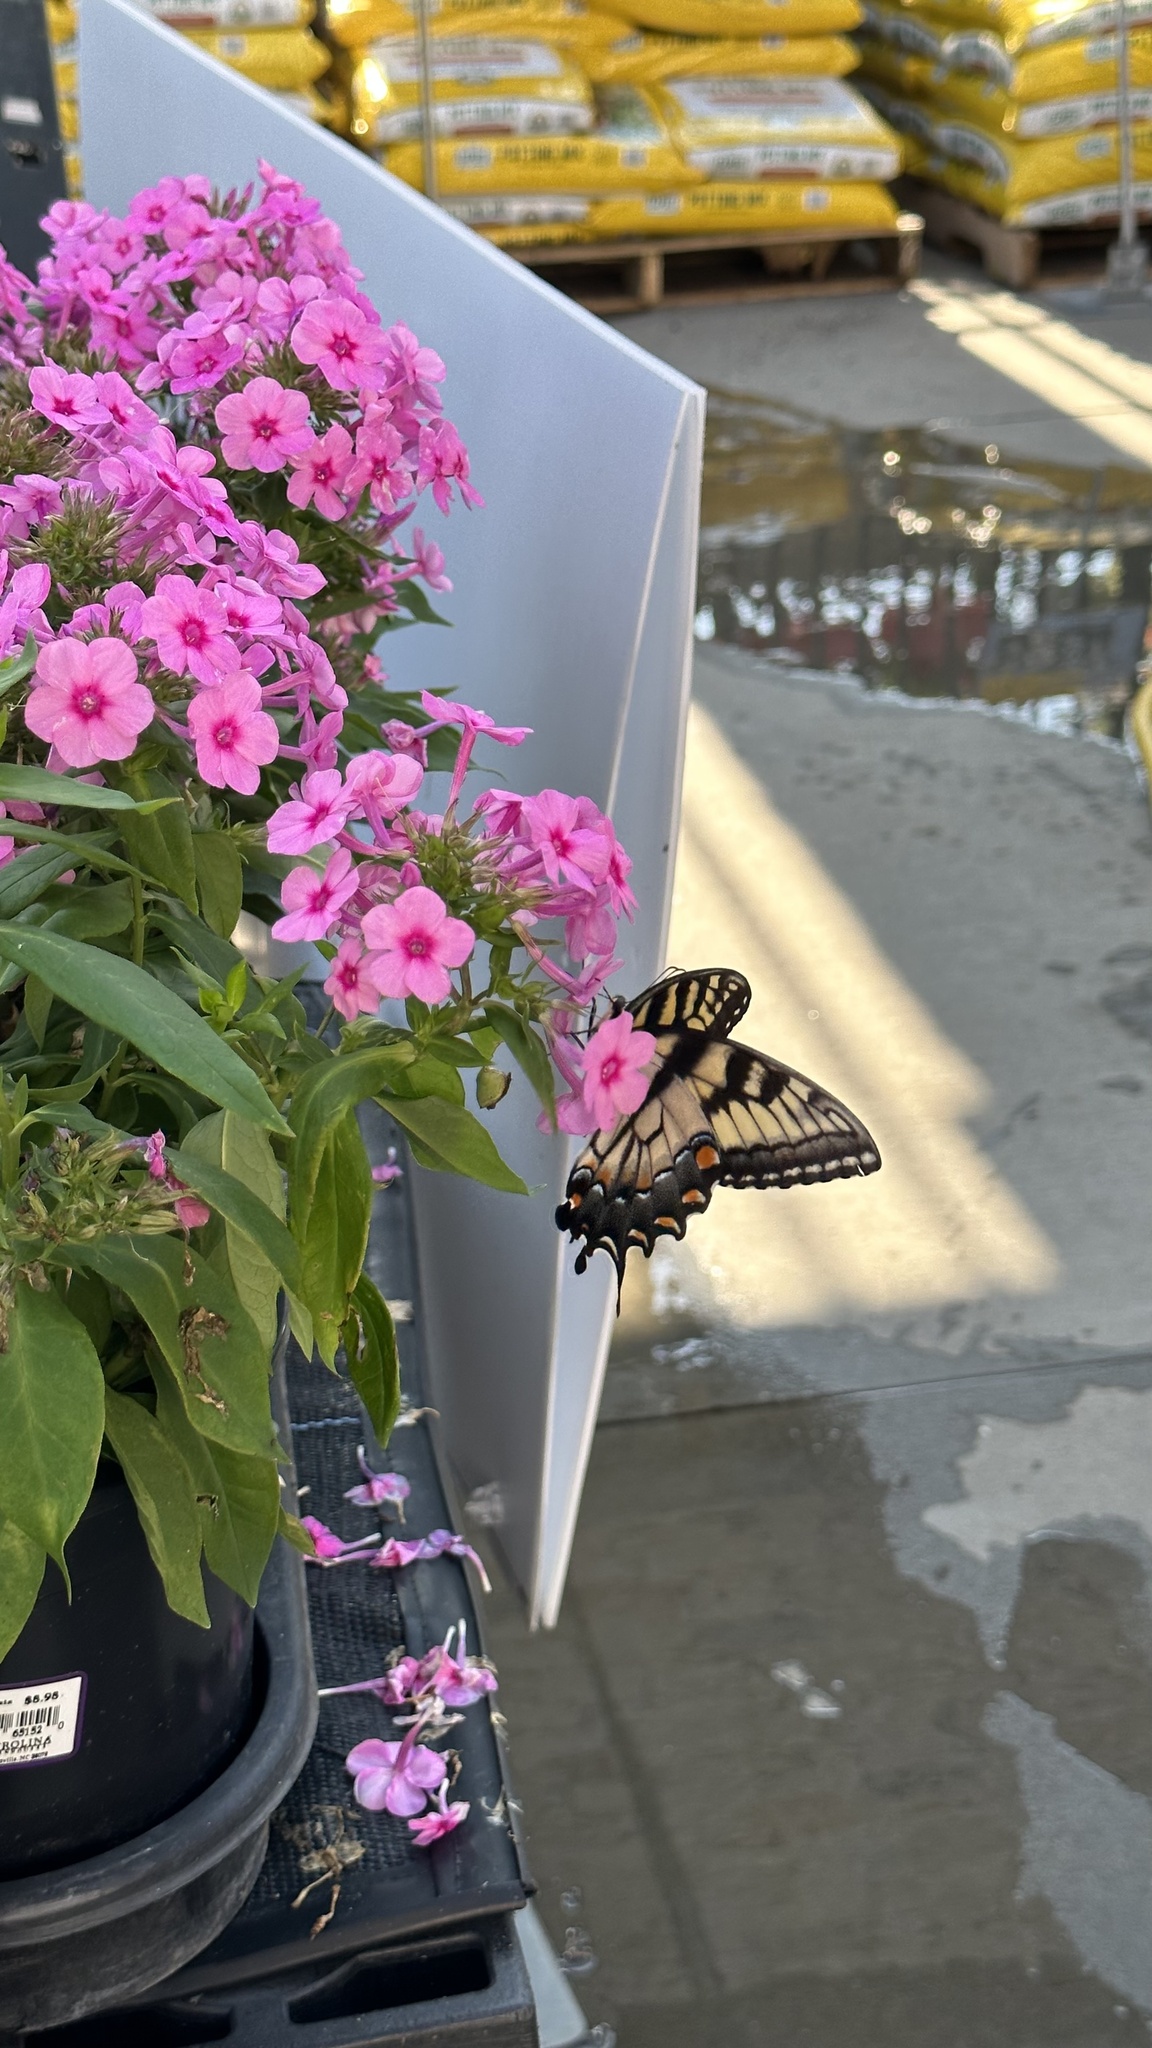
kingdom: Animalia
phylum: Arthropoda
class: Insecta
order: Lepidoptera
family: Papilionidae
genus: Papilio
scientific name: Papilio glaucus
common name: Tiger swallowtail
